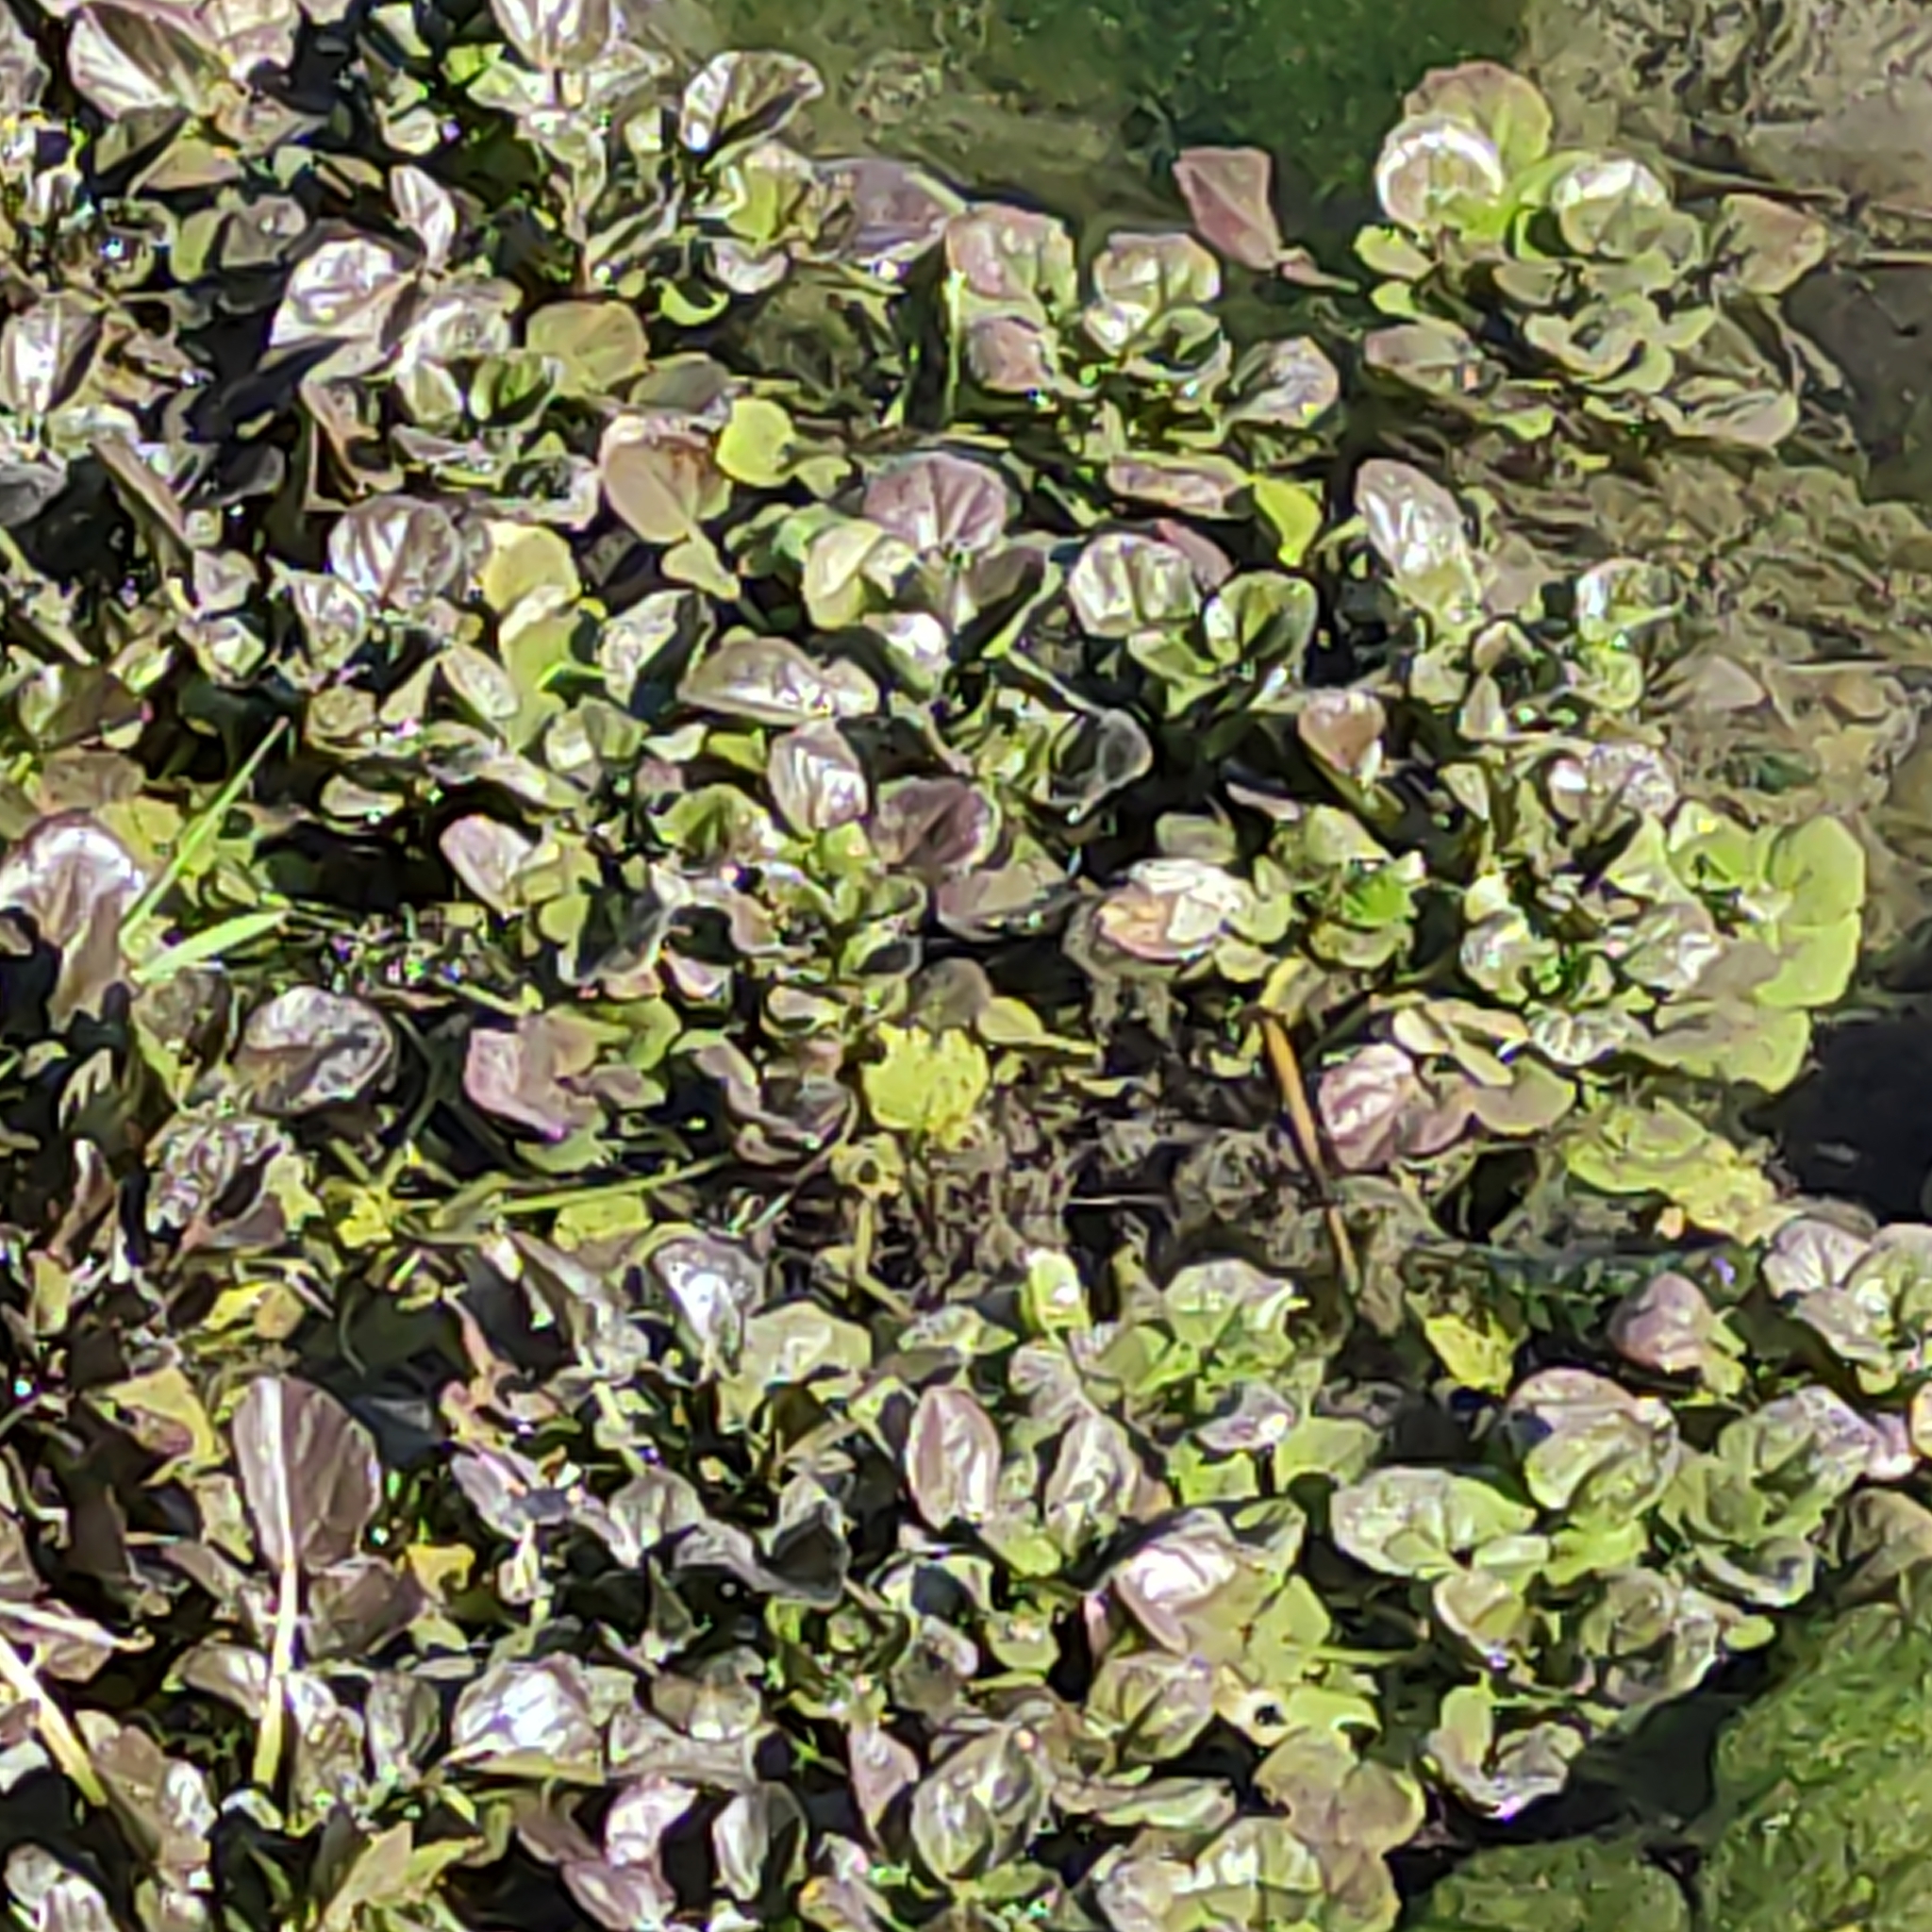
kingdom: Plantae
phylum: Tracheophyta
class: Magnoliopsida
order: Brassicales
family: Brassicaceae
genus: Nasturtium
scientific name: Nasturtium officinale
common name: Watercress
